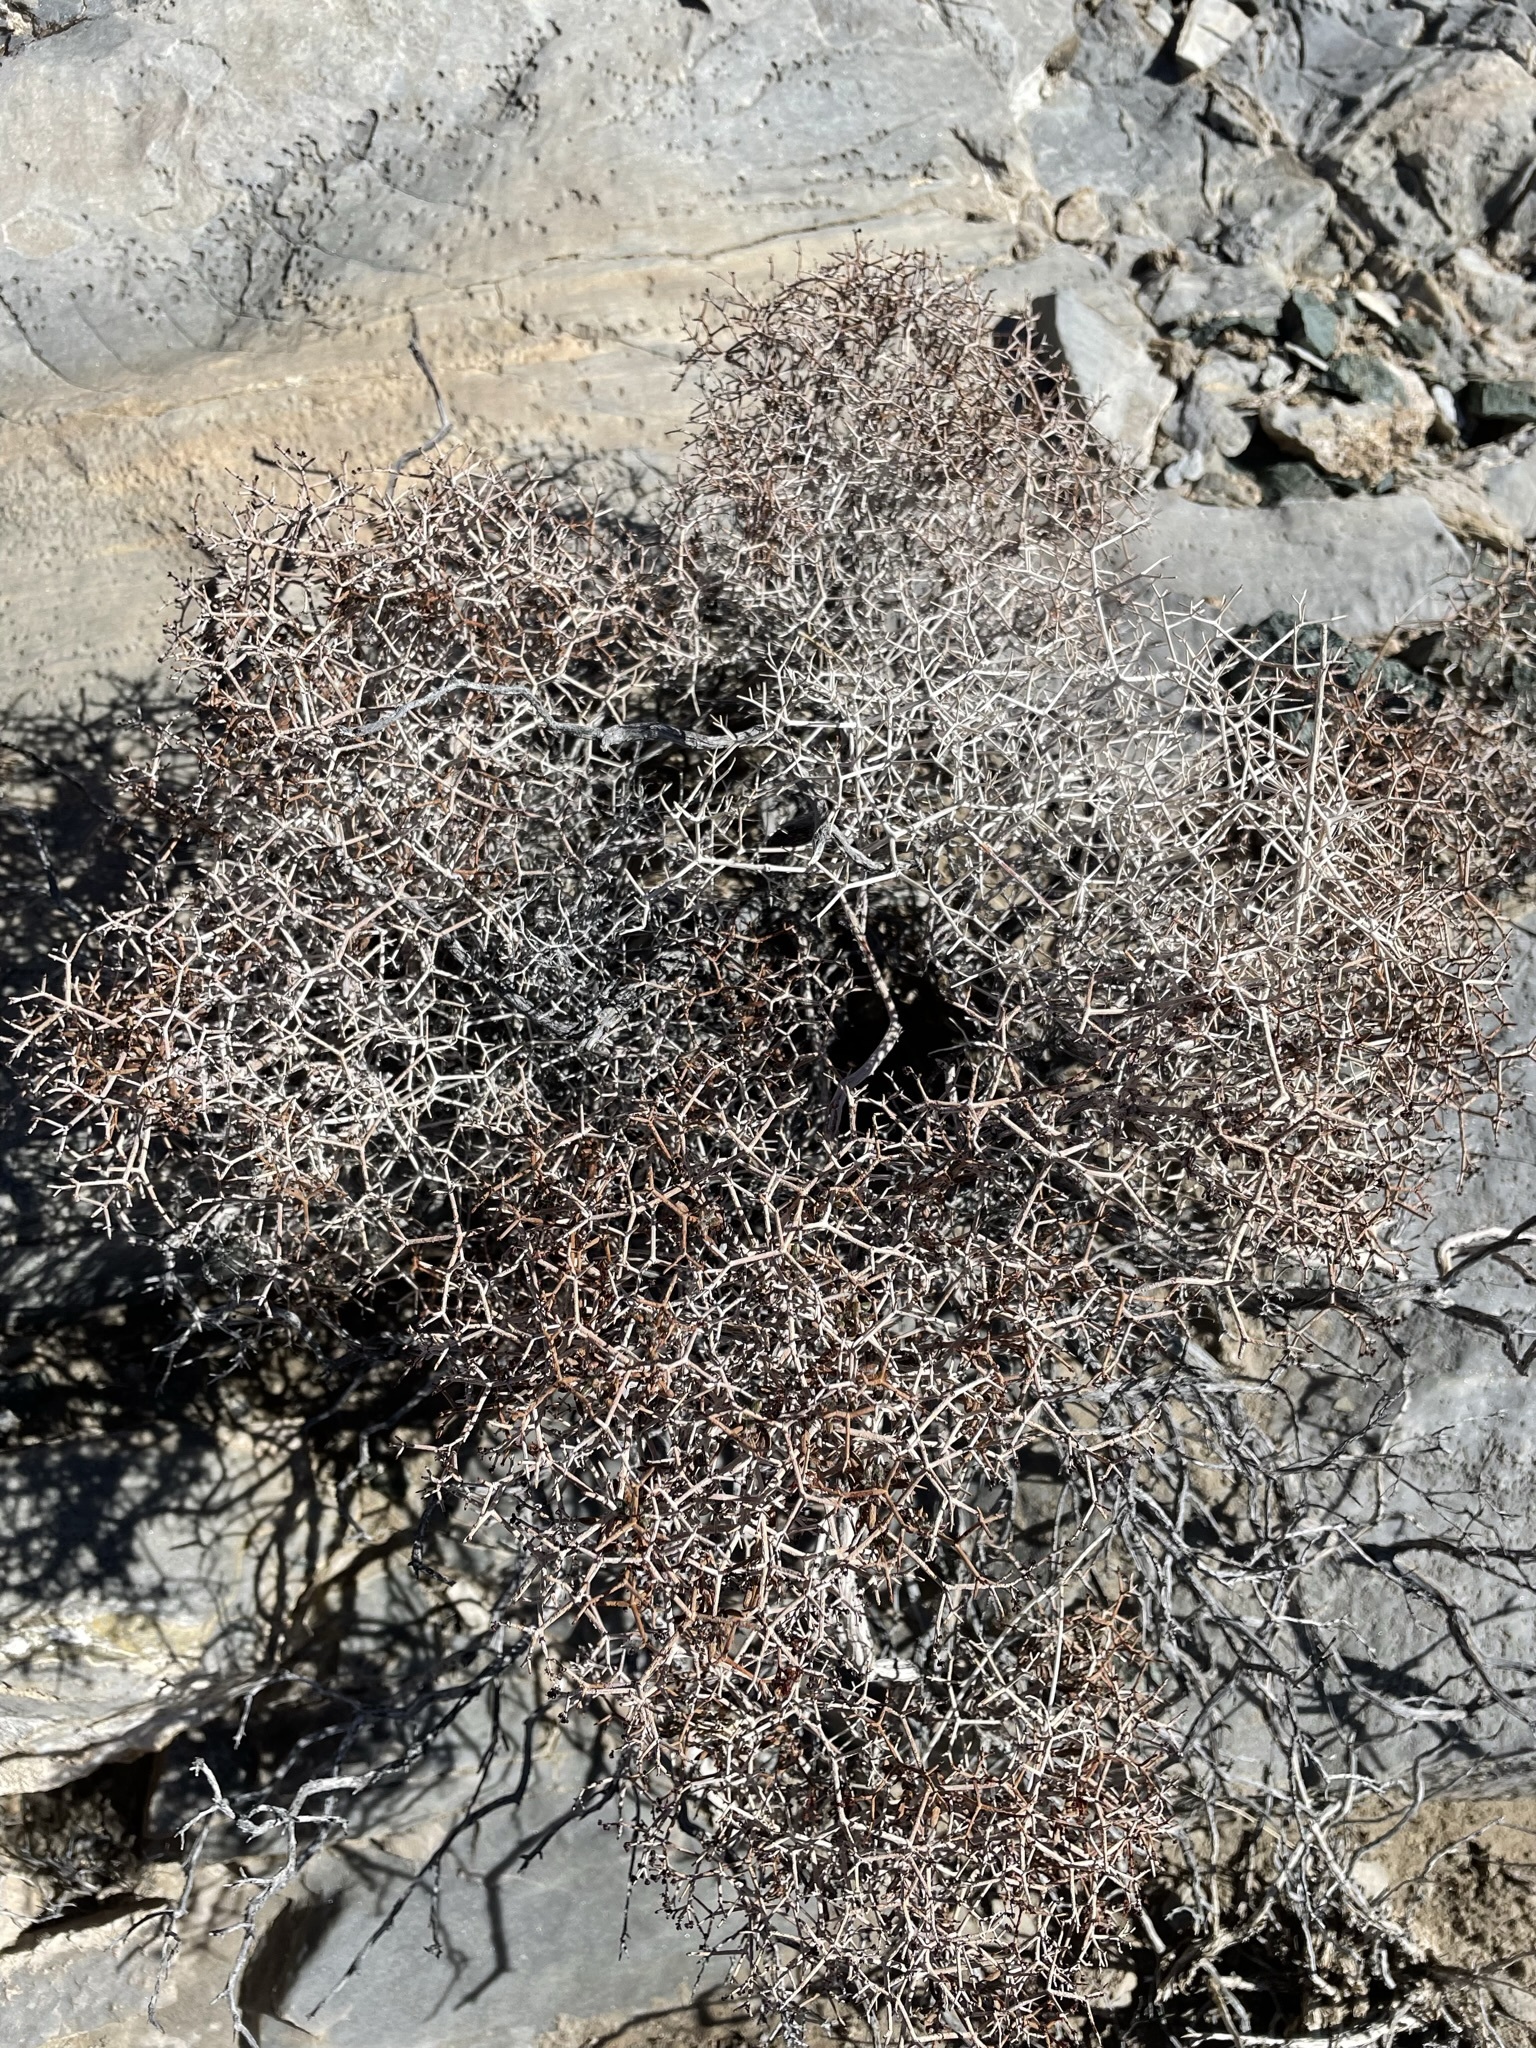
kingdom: Plantae
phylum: Tracheophyta
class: Magnoliopsida
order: Caryophyllales
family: Polygonaceae
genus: Eriogonum
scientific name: Eriogonum heermannii
